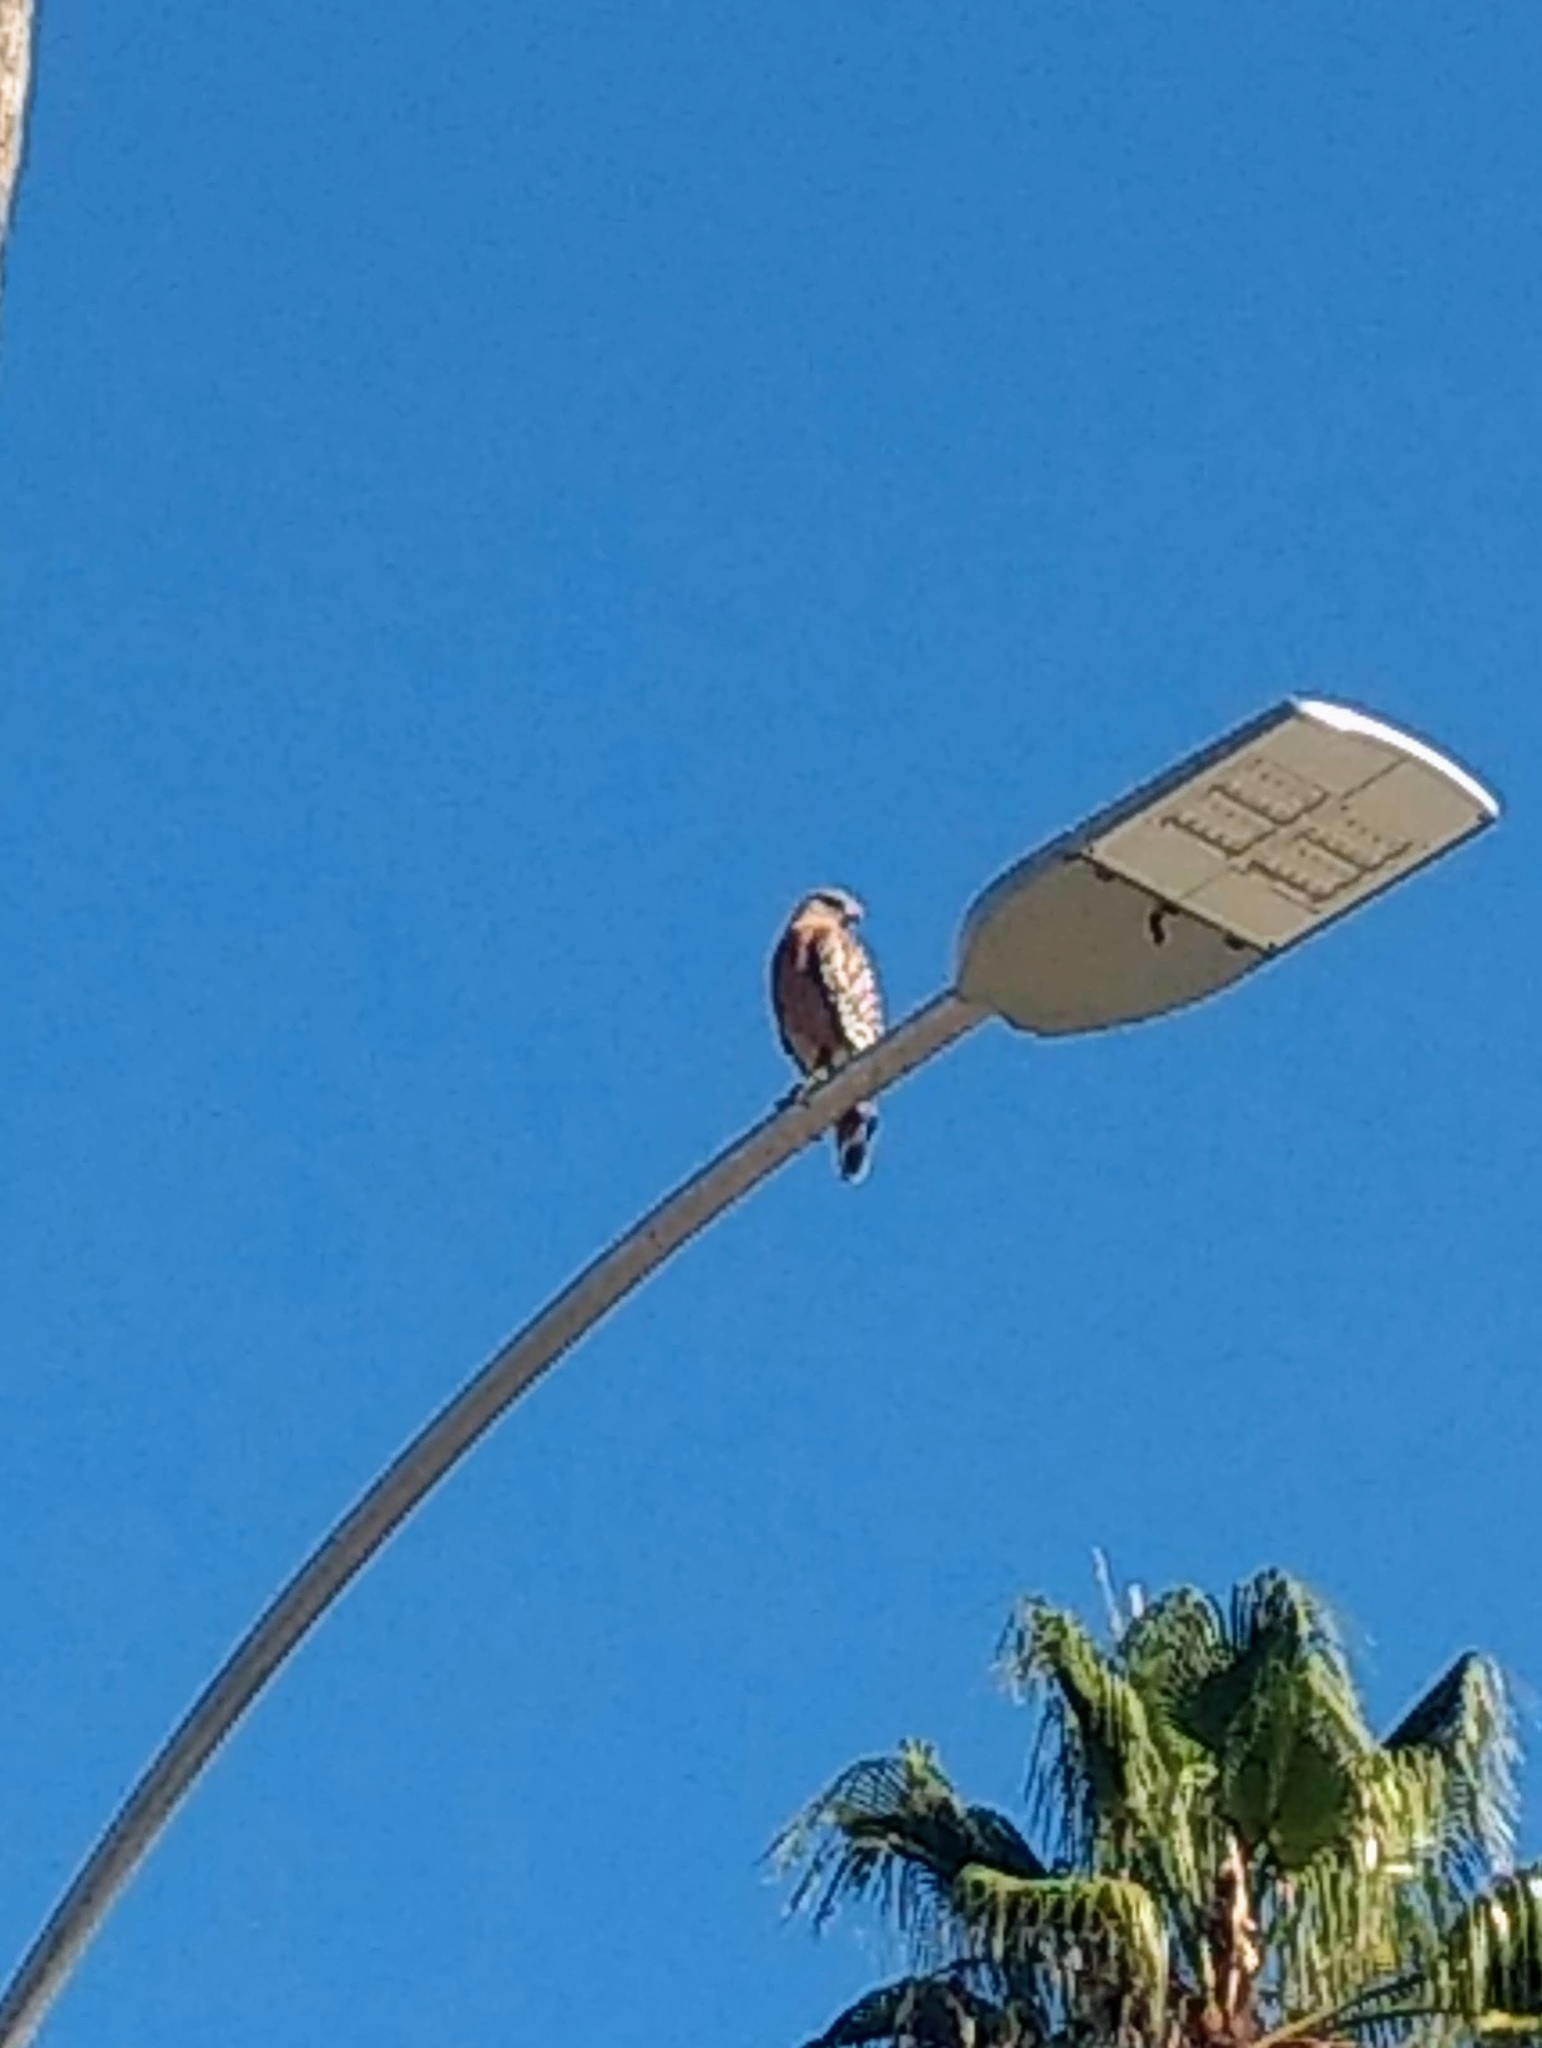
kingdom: Animalia
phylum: Chordata
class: Aves
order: Accipitriformes
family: Accipitridae
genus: Buteo
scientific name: Buteo lineatus
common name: Red-shouldered hawk
